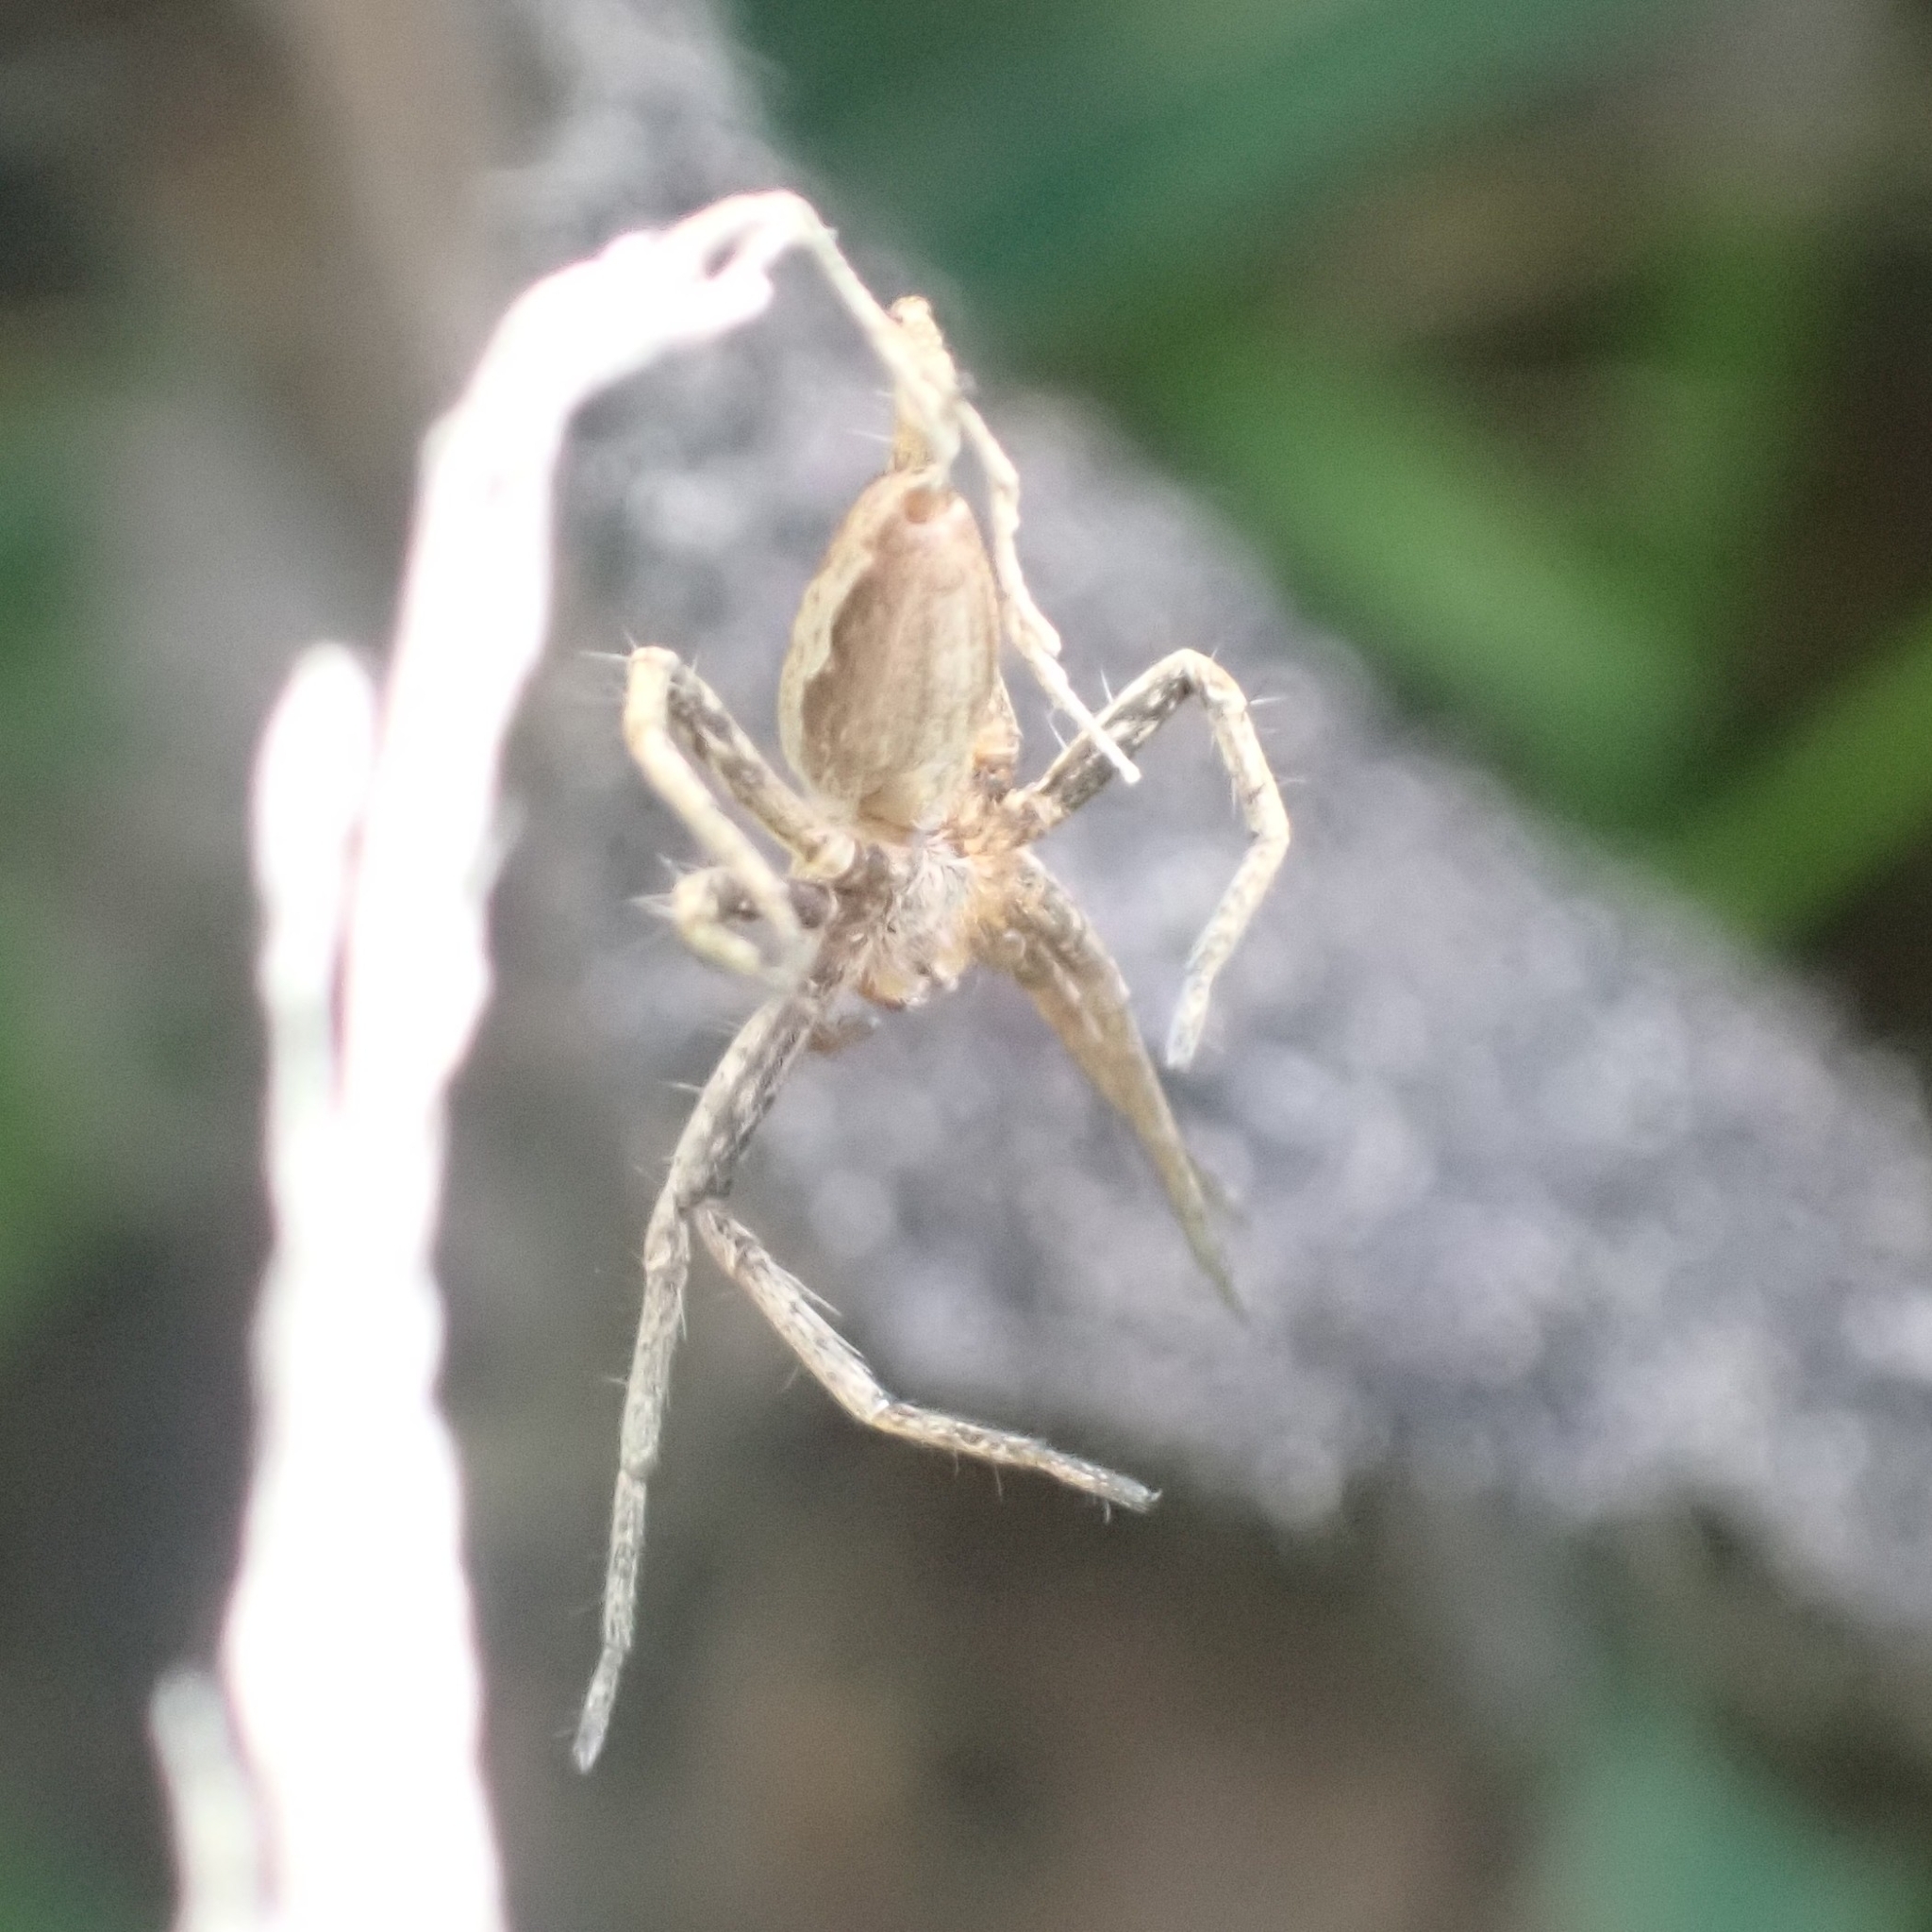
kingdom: Animalia
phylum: Arthropoda
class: Arachnida
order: Araneae
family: Pisauridae
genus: Pisaura
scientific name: Pisaura mirabilis
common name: Tent spider
